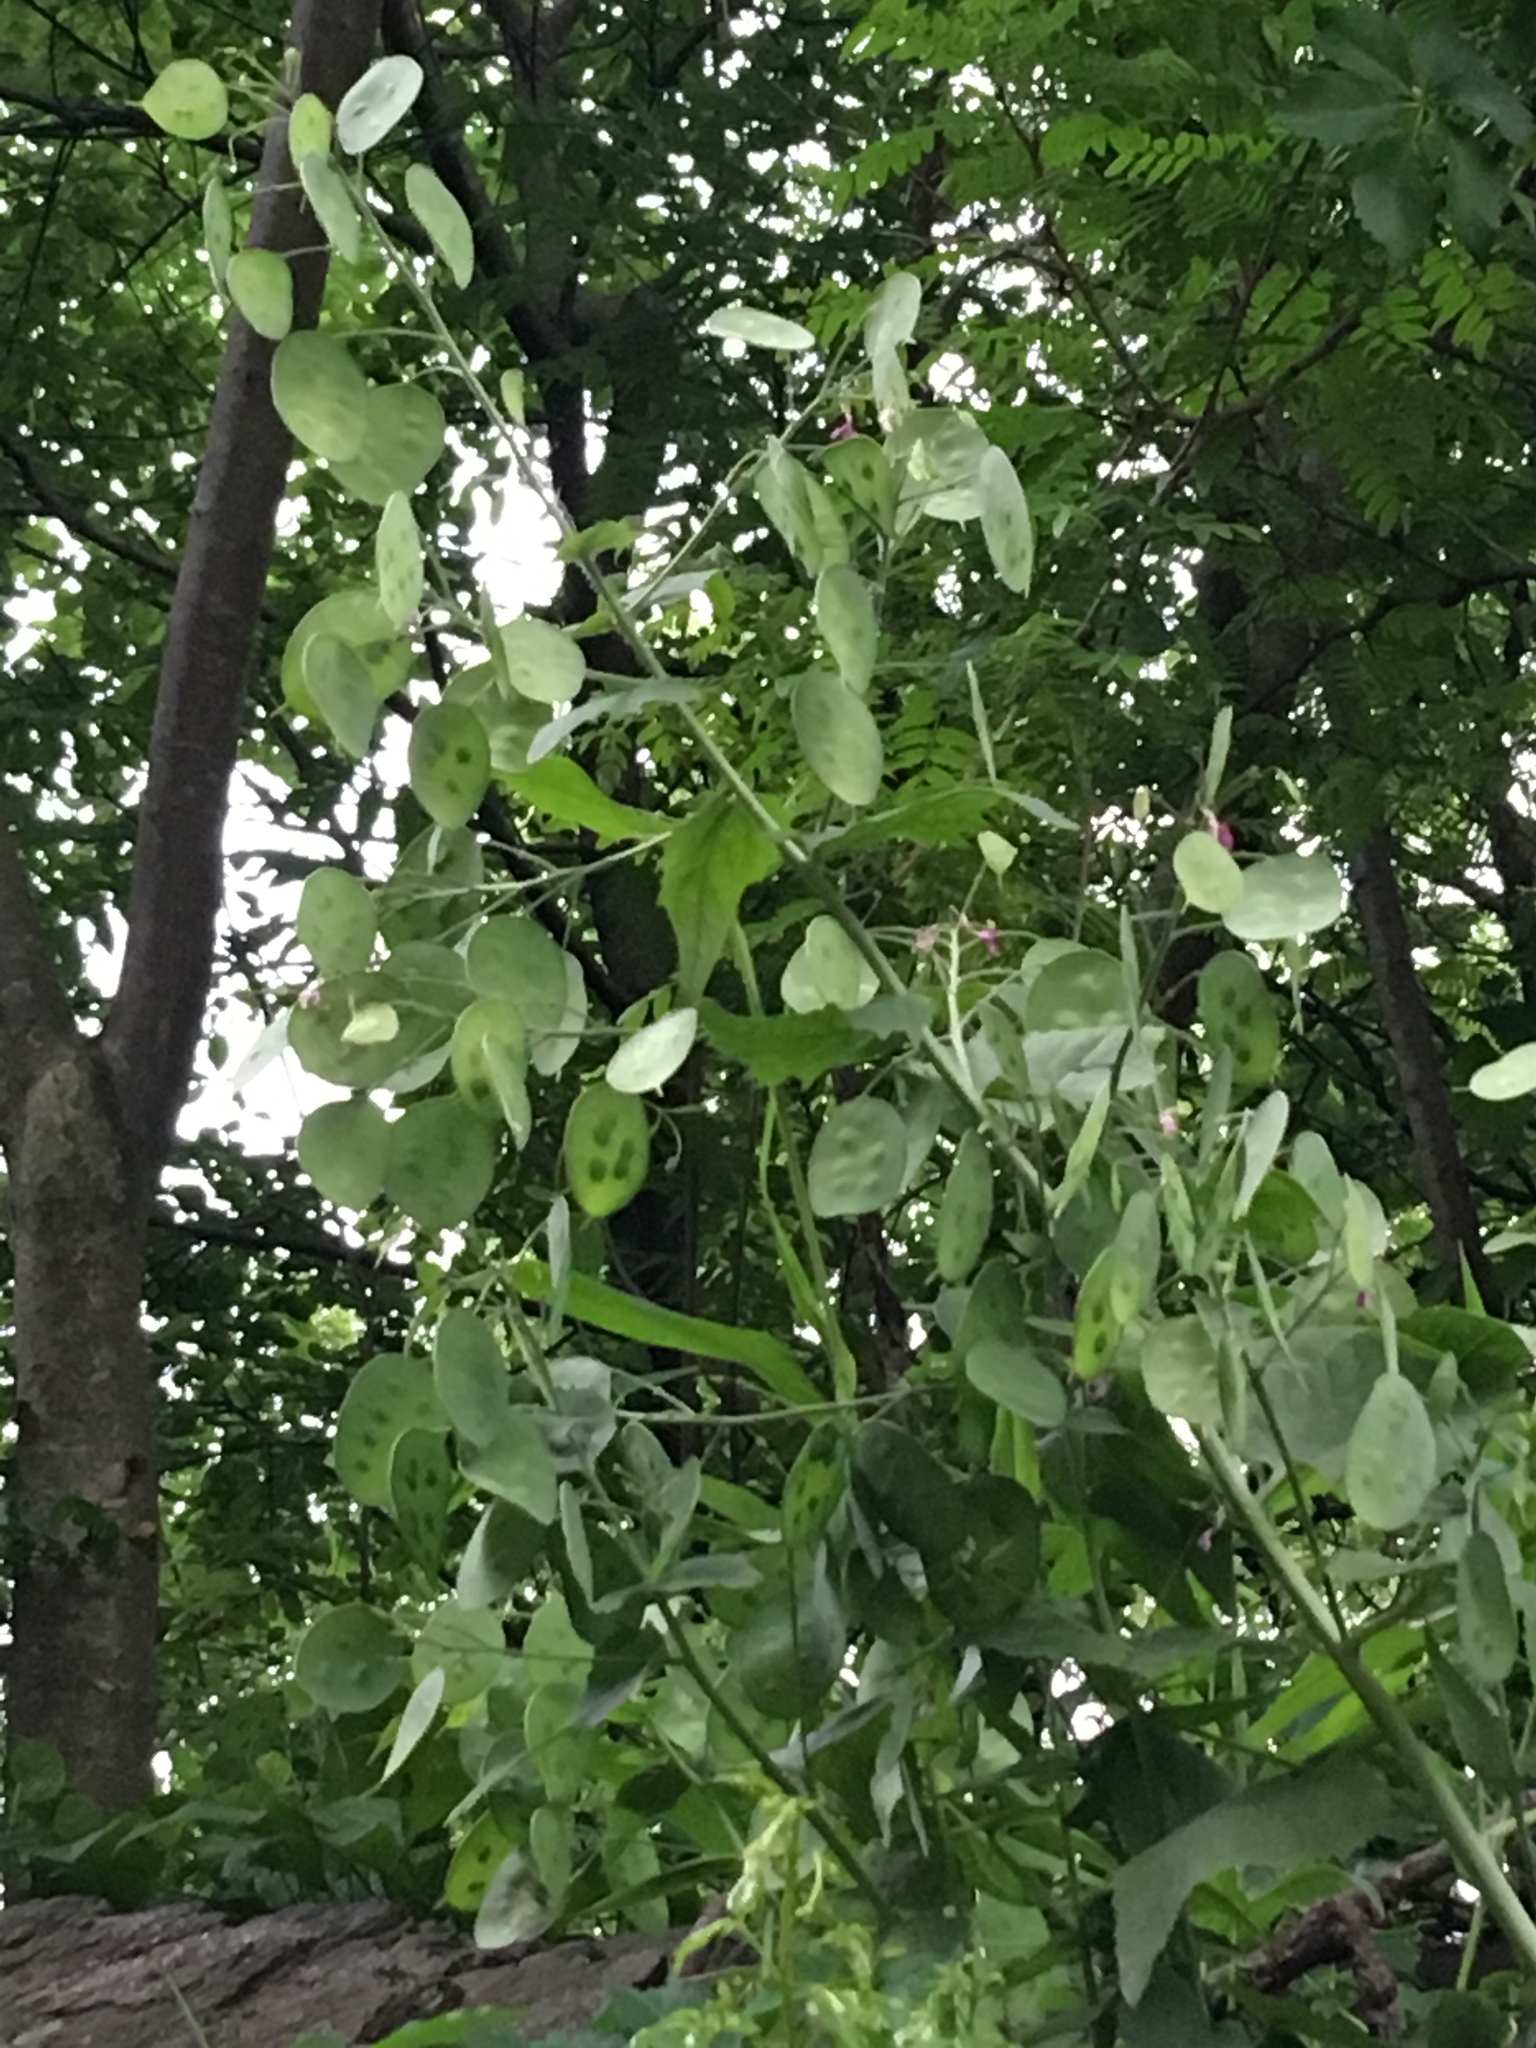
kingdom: Plantae
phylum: Tracheophyta
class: Magnoliopsida
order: Brassicales
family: Brassicaceae
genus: Lunaria
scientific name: Lunaria annua
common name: Honesty
